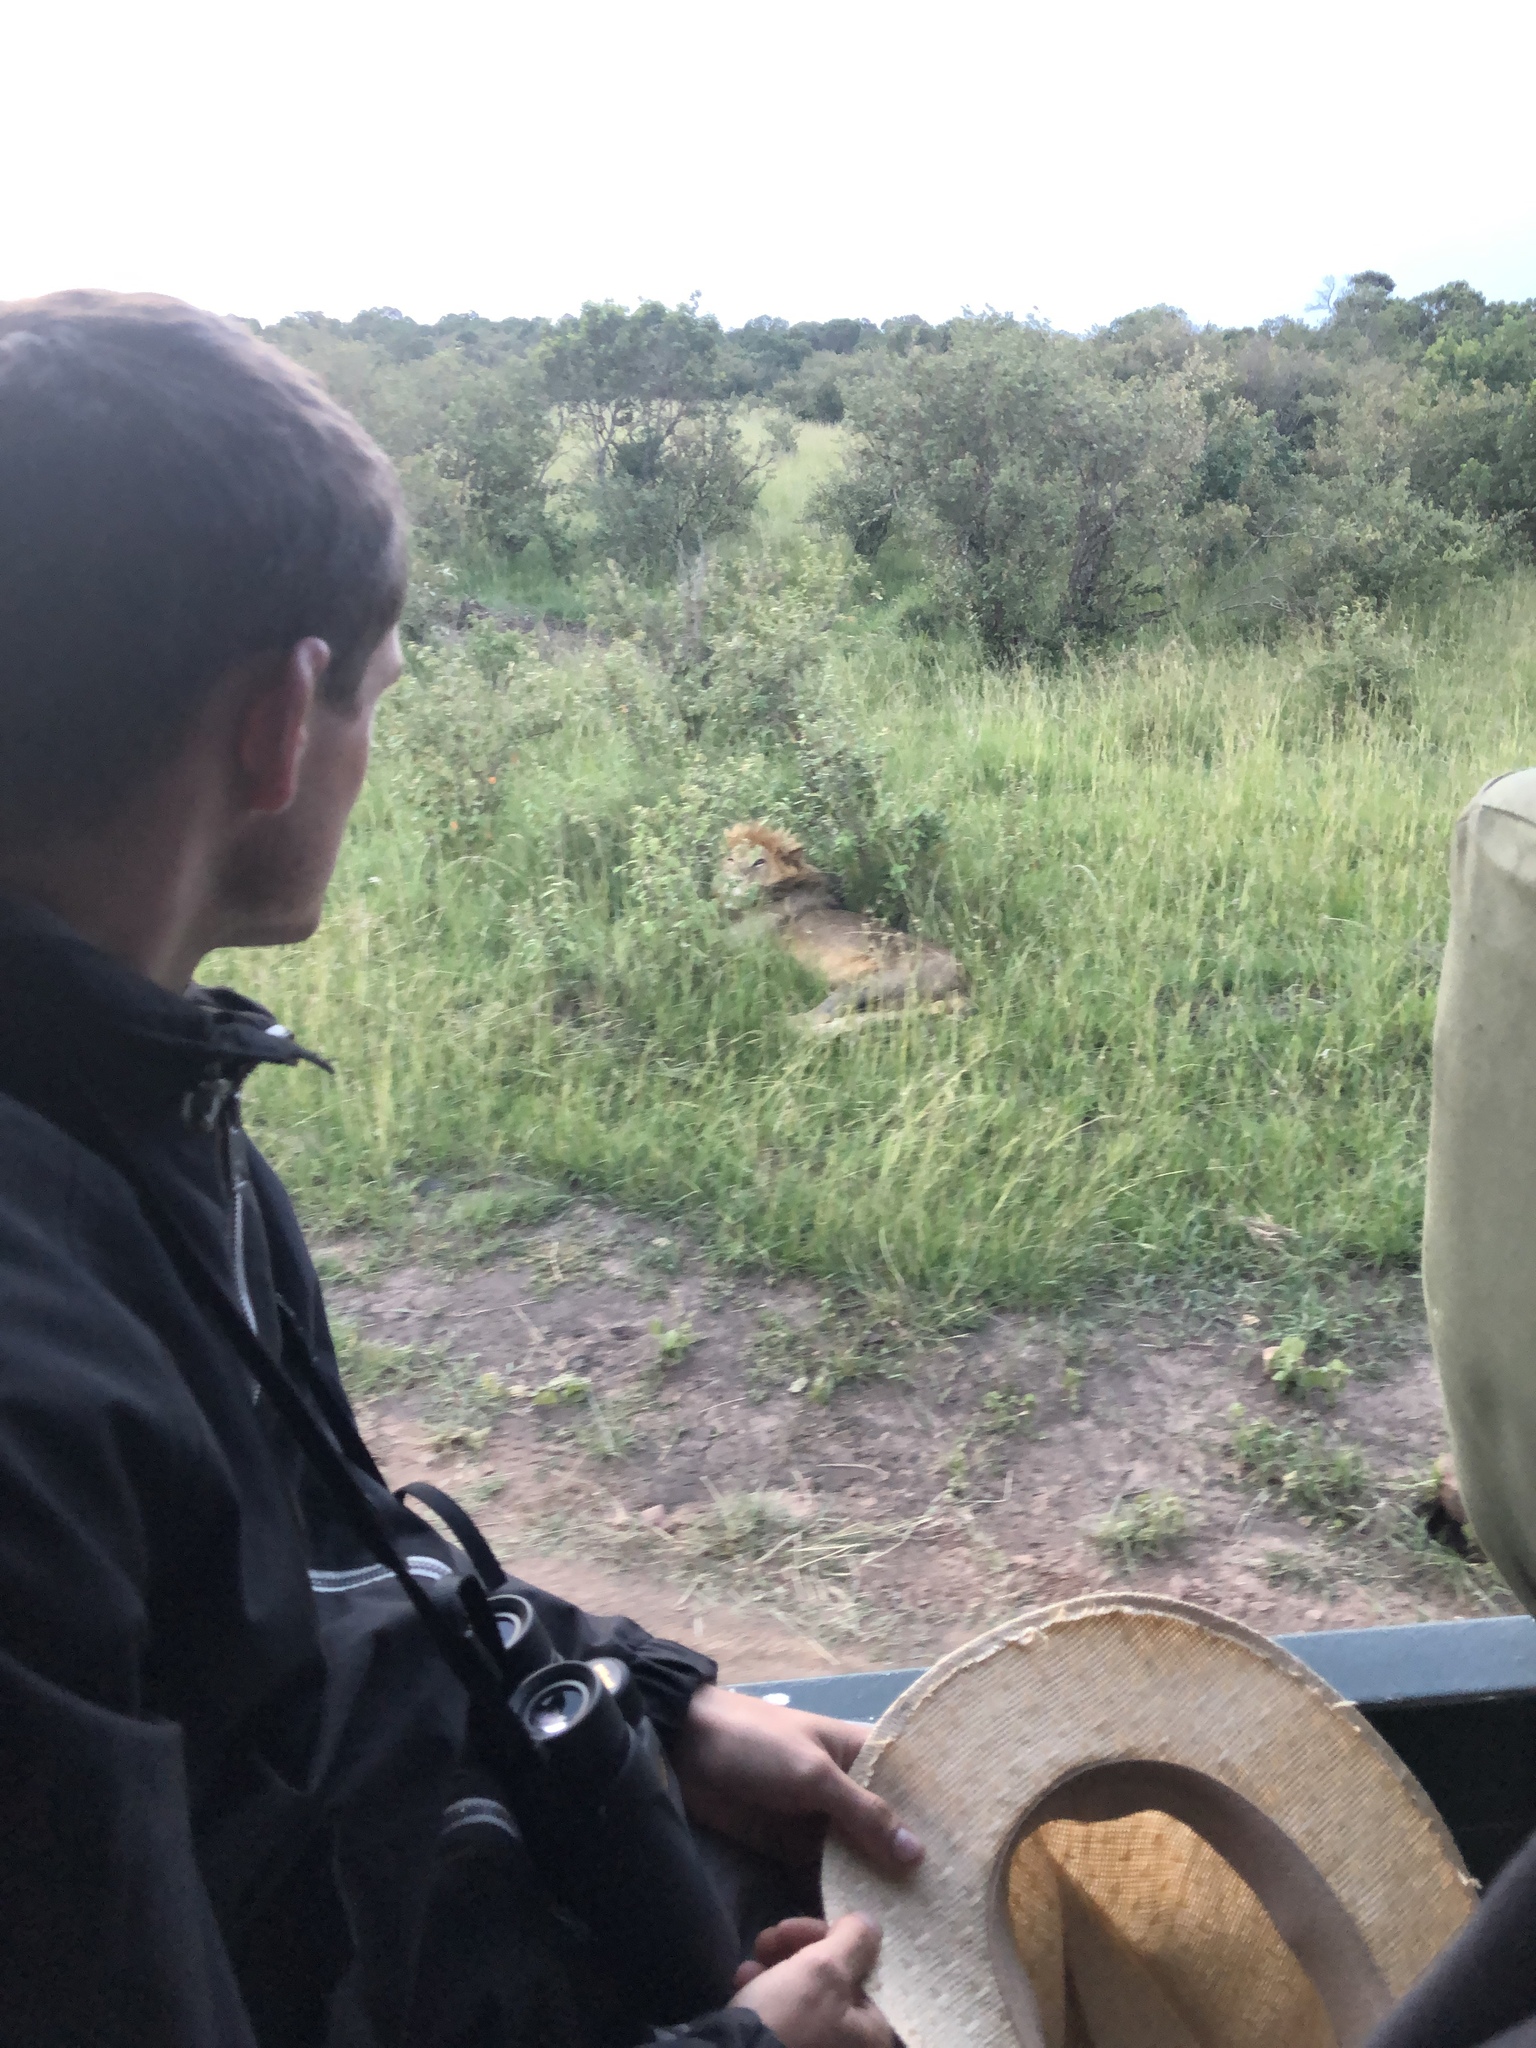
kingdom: Animalia
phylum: Chordata
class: Mammalia
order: Carnivora
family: Felidae
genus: Panthera
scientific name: Panthera leo
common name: Lion
